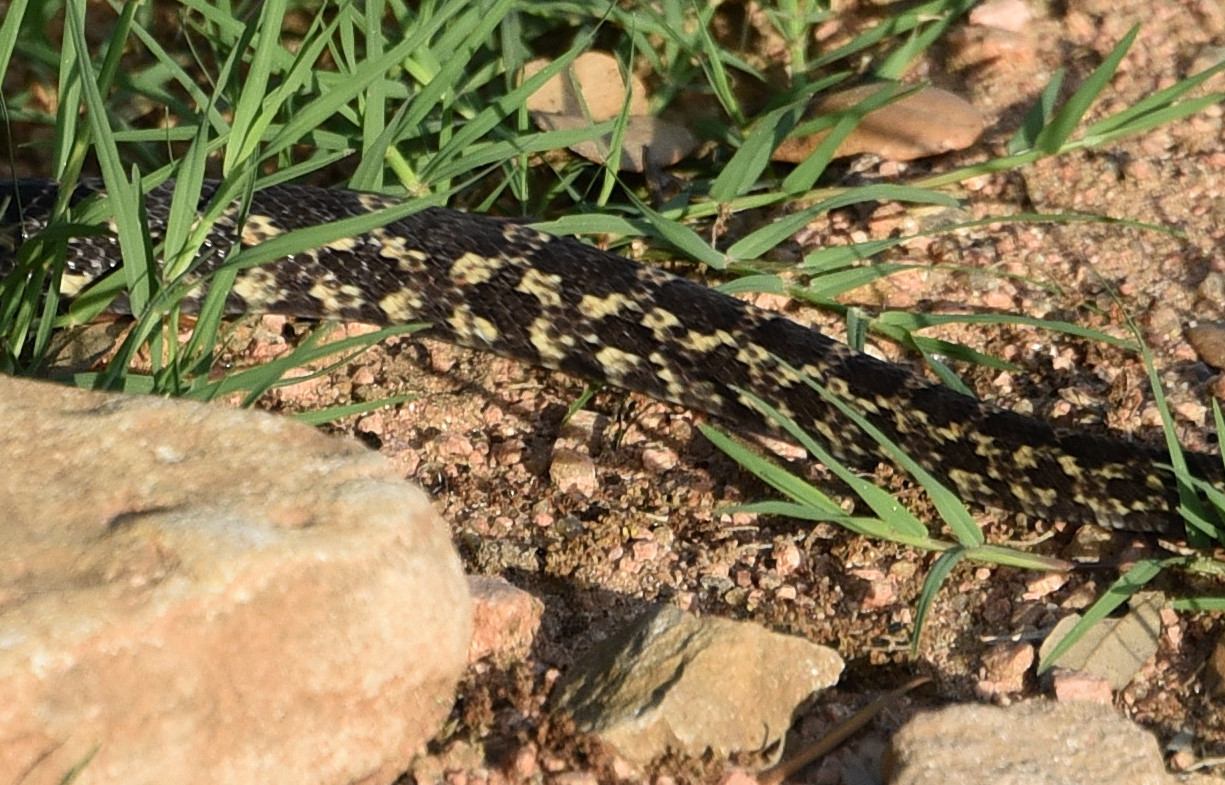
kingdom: Animalia
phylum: Chordata
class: Squamata
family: Colubridae
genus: Pantherophis
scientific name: Pantherophis obsoletus
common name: Black rat snake
